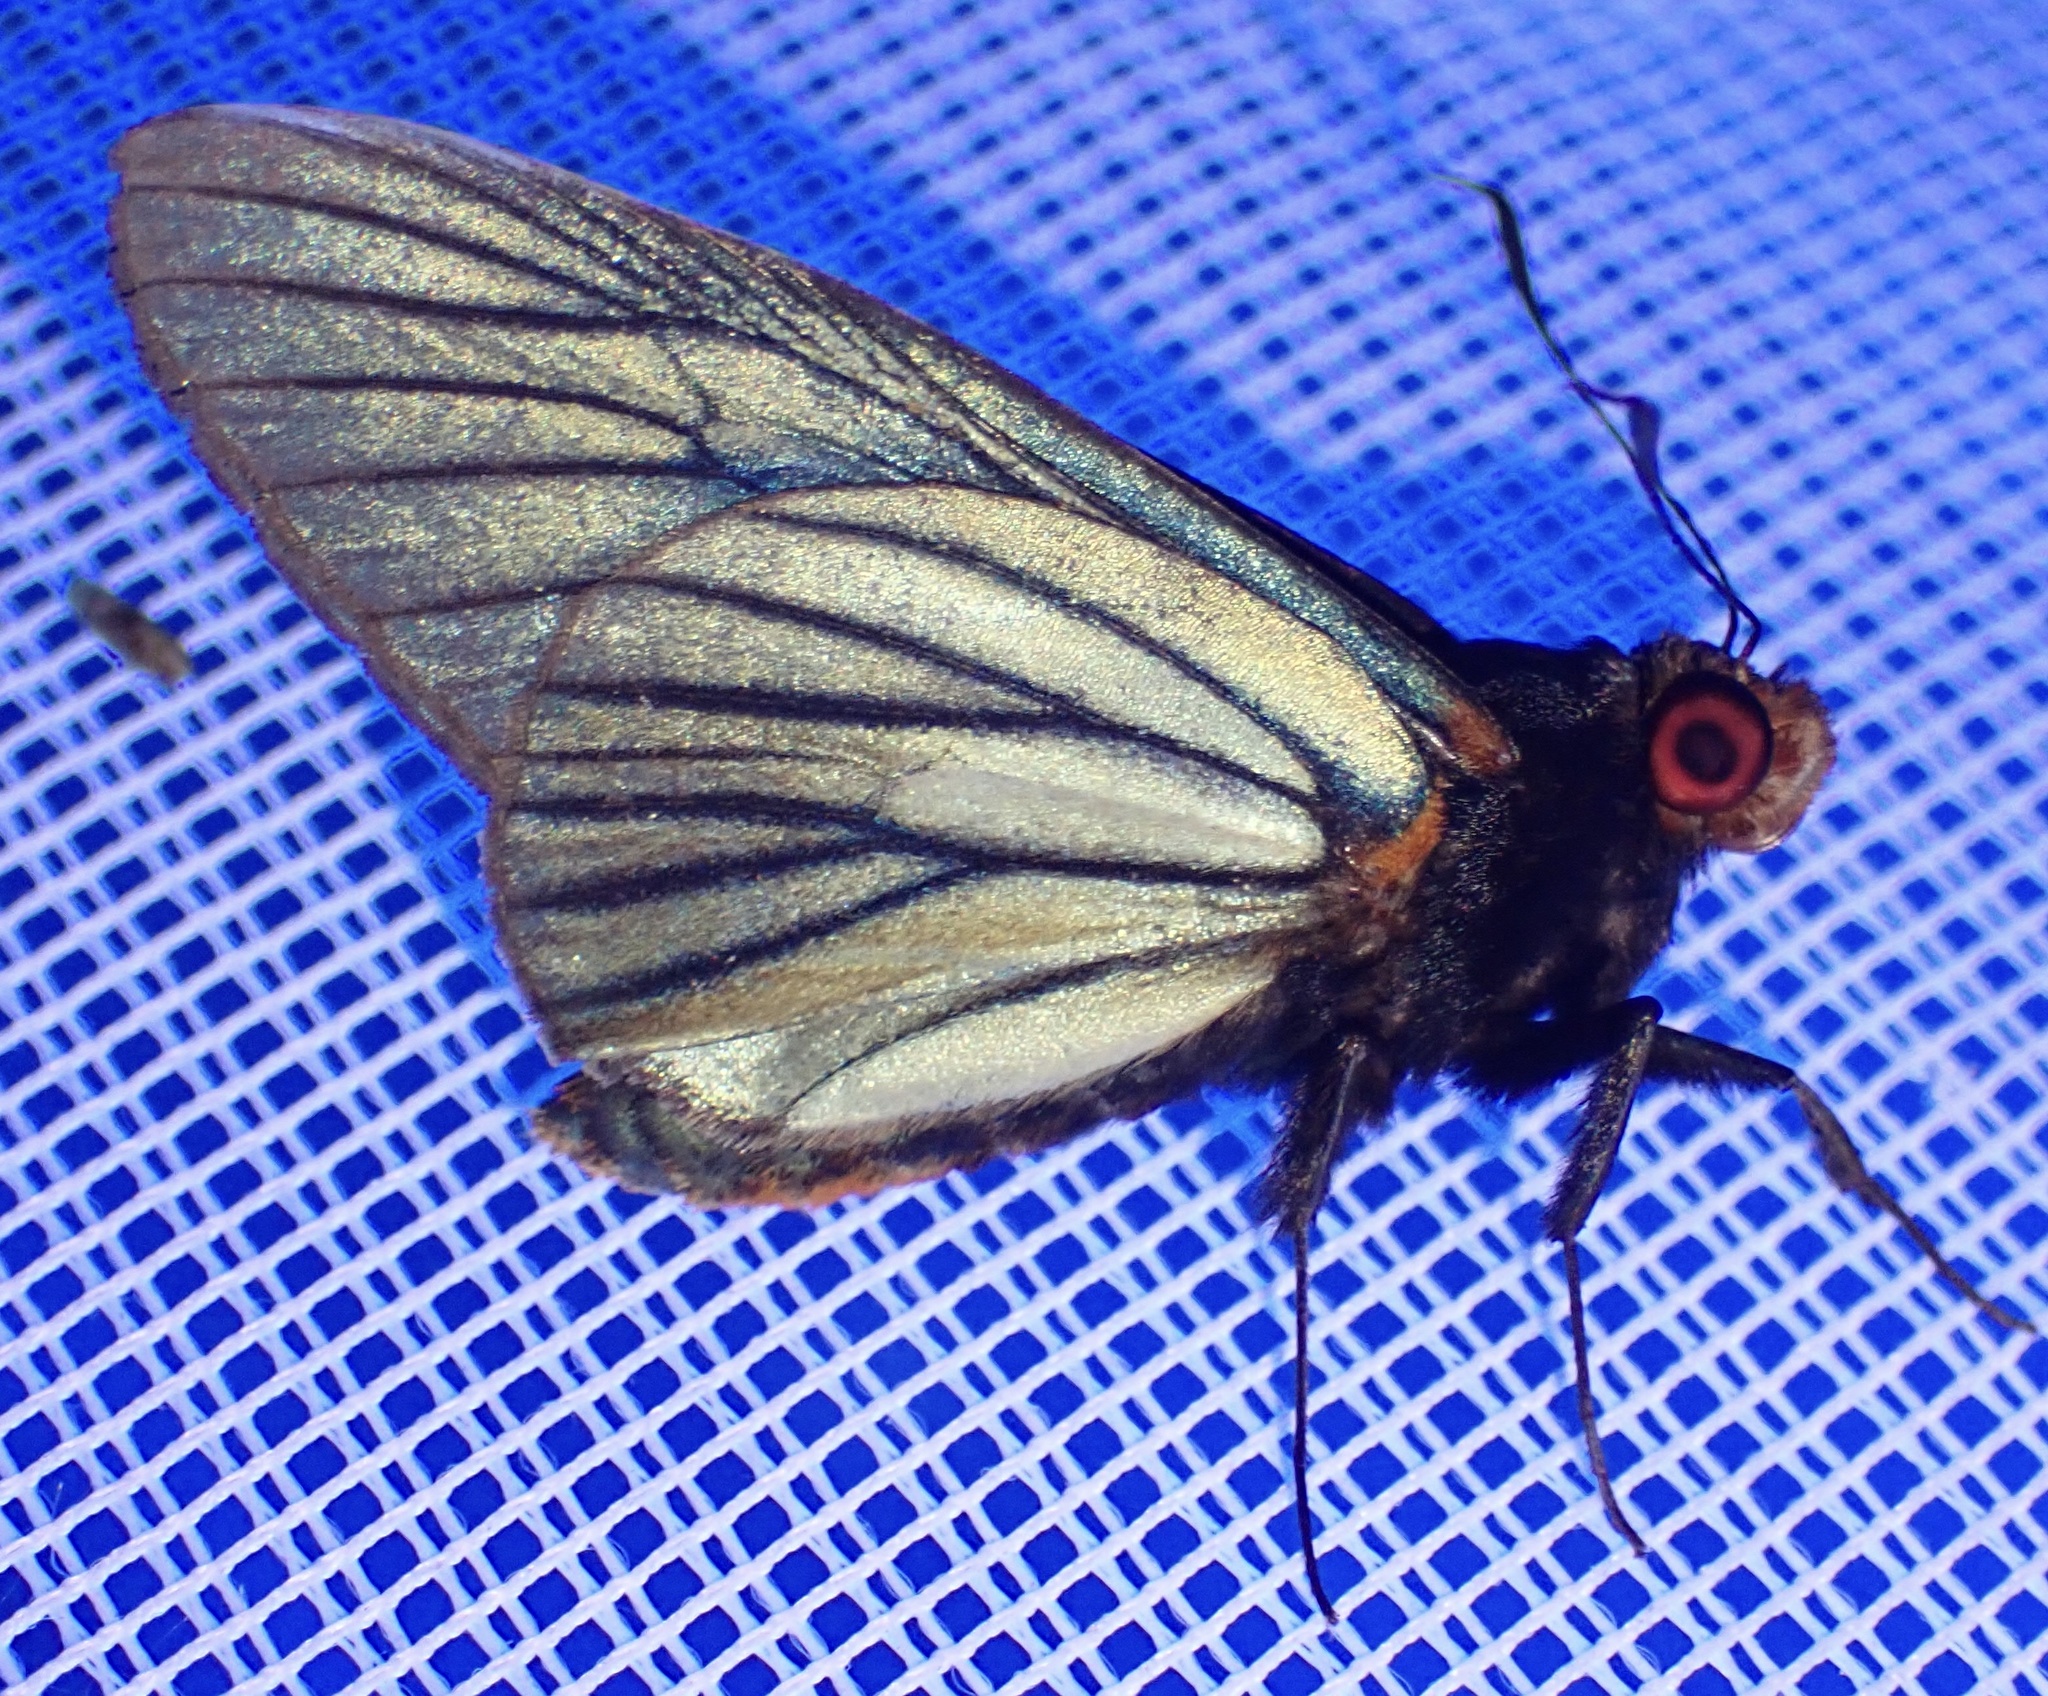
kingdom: Animalia
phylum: Arthropoda
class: Insecta
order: Lepidoptera
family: Hesperiidae
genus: Pteroteinon
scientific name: Pteroteinon laufella
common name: Blue red-eye
